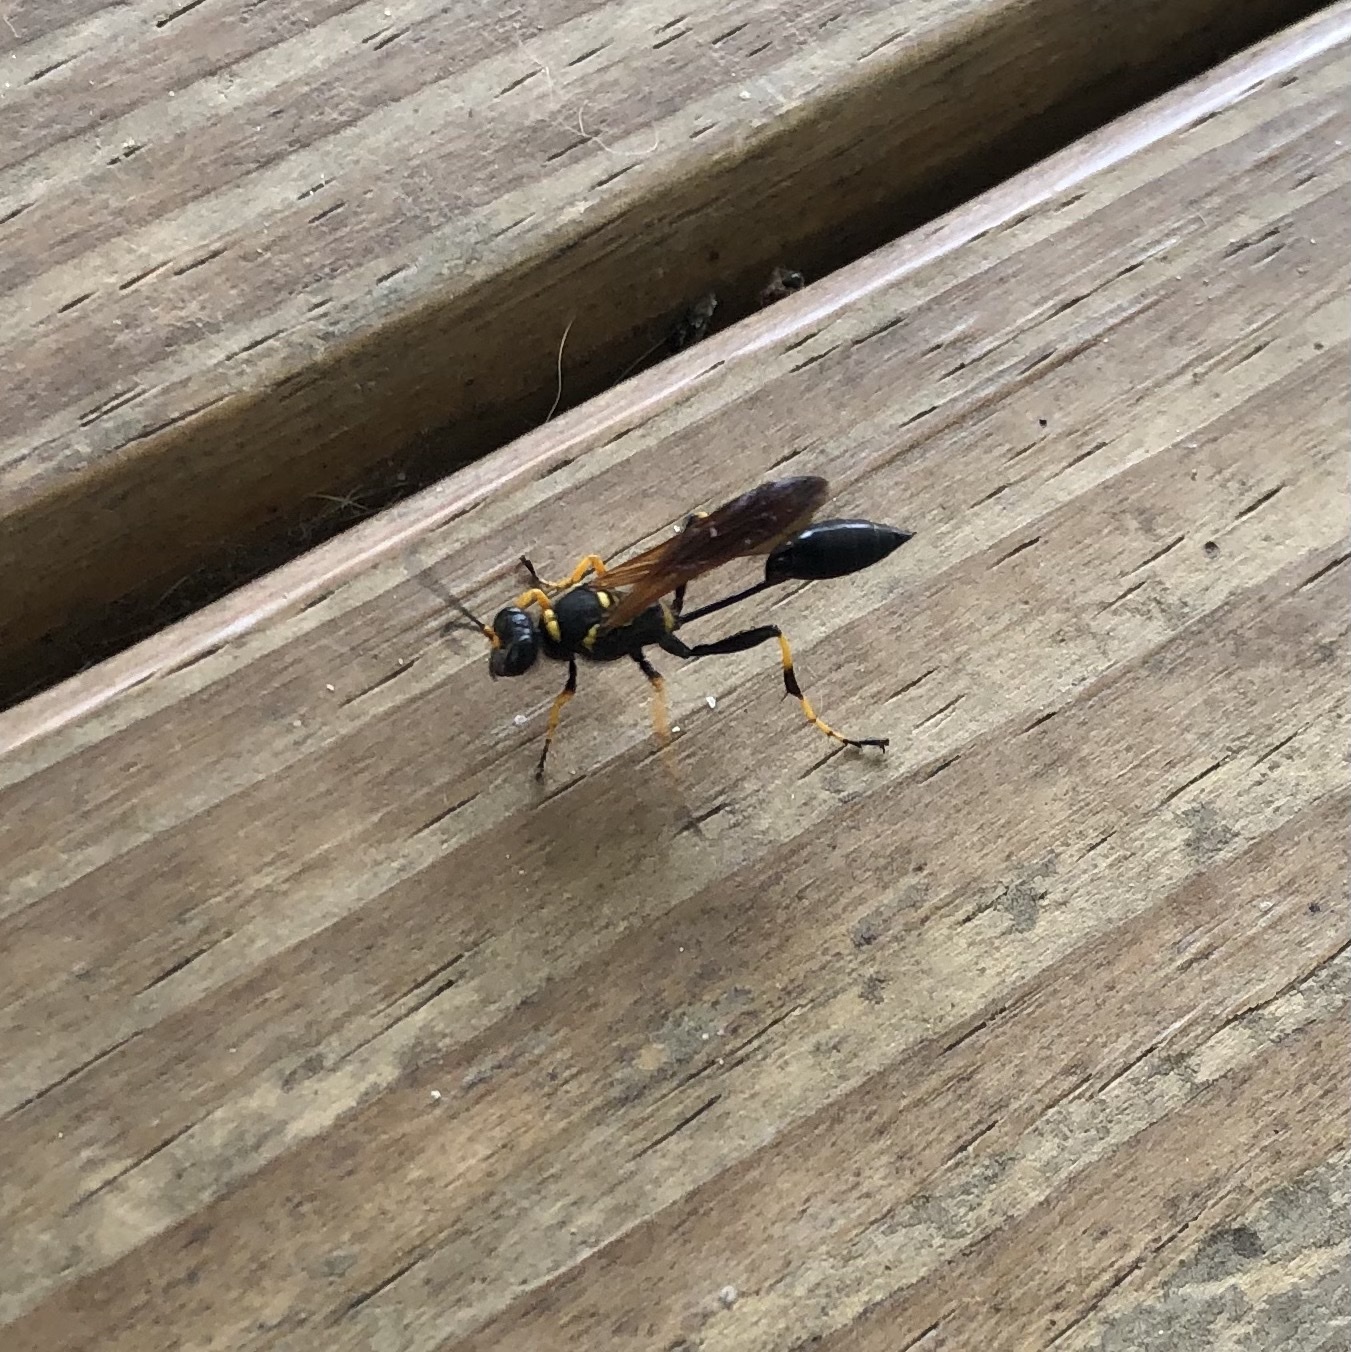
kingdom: Animalia
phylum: Arthropoda
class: Insecta
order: Hymenoptera
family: Sphecidae
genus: Sceliphron
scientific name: Sceliphron caementarium
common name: Mud dauber
